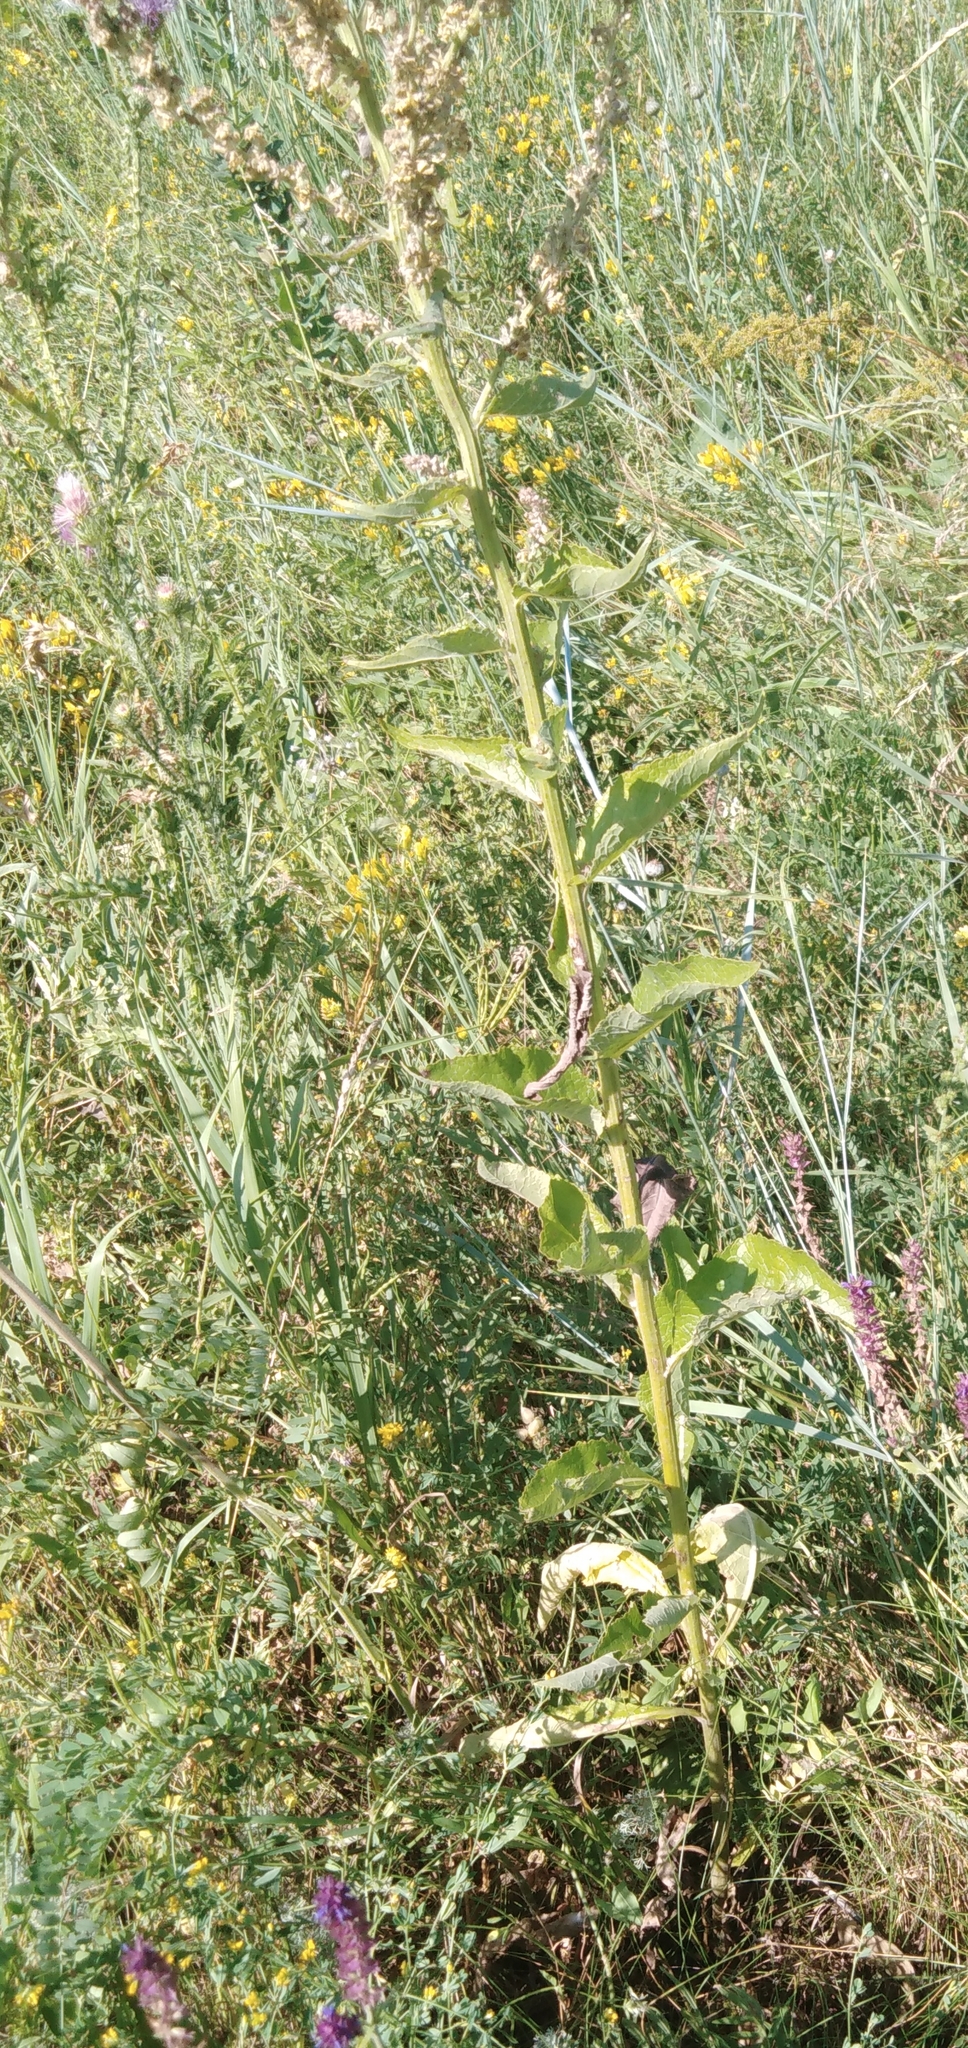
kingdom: Plantae
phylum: Tracheophyta
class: Magnoliopsida
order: Lamiales
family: Scrophulariaceae
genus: Verbascum
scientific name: Verbascum lychnitis
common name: White mullein
